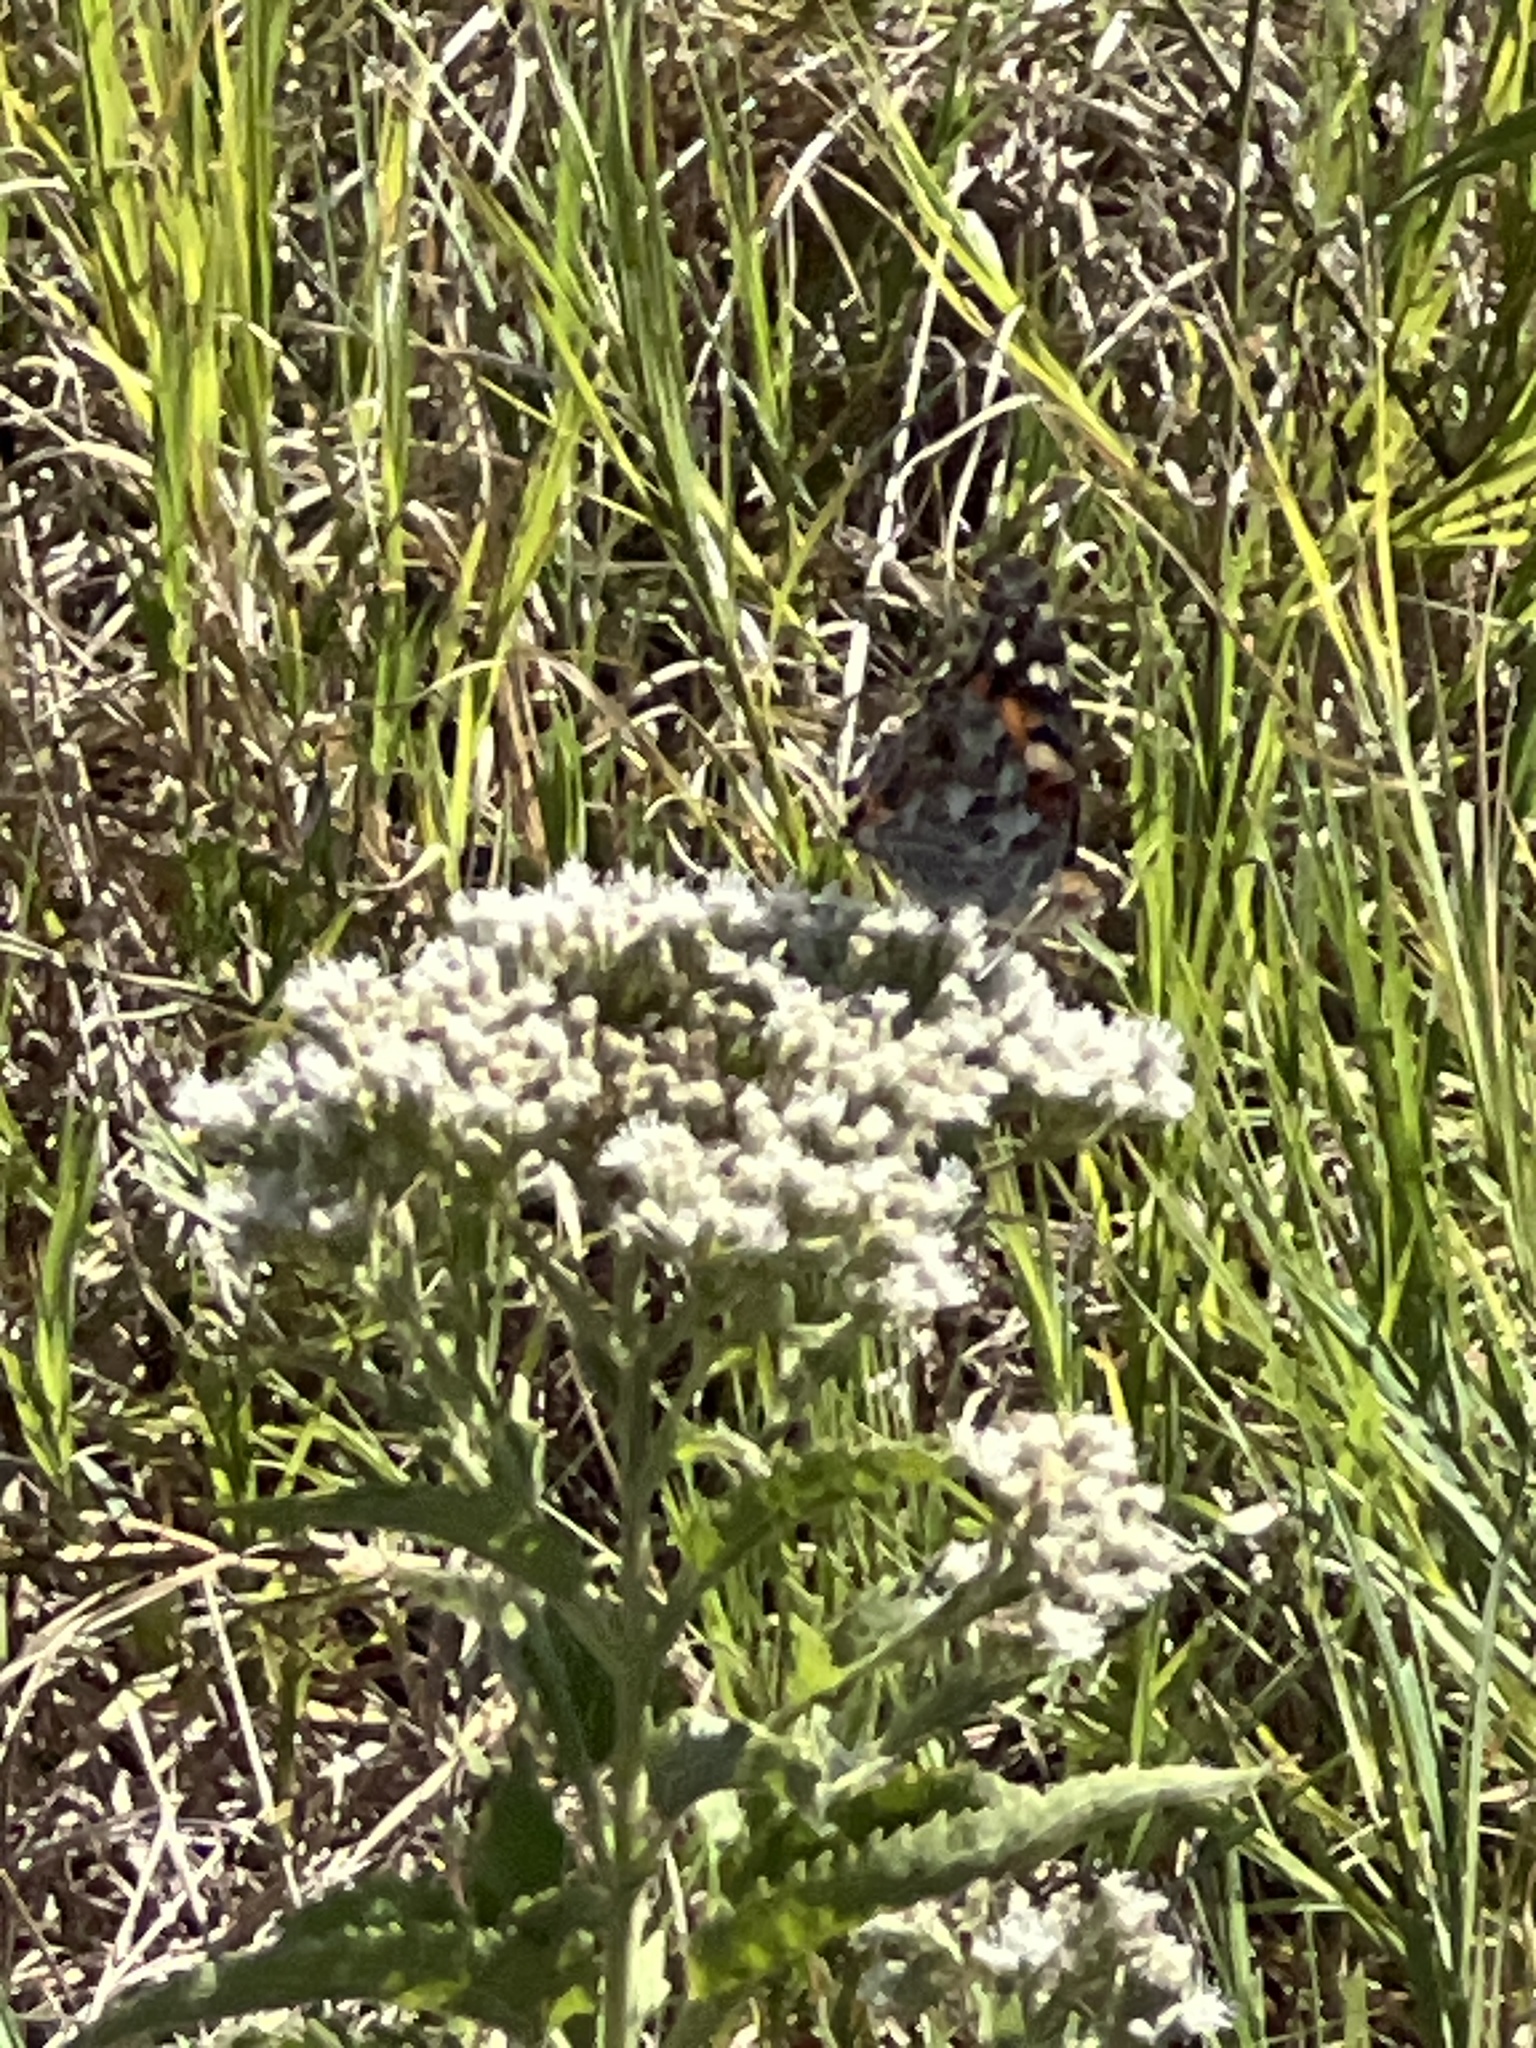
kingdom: Animalia
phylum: Arthropoda
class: Insecta
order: Lepidoptera
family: Nymphalidae
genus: Vanessa
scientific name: Vanessa cardui
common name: Painted lady
